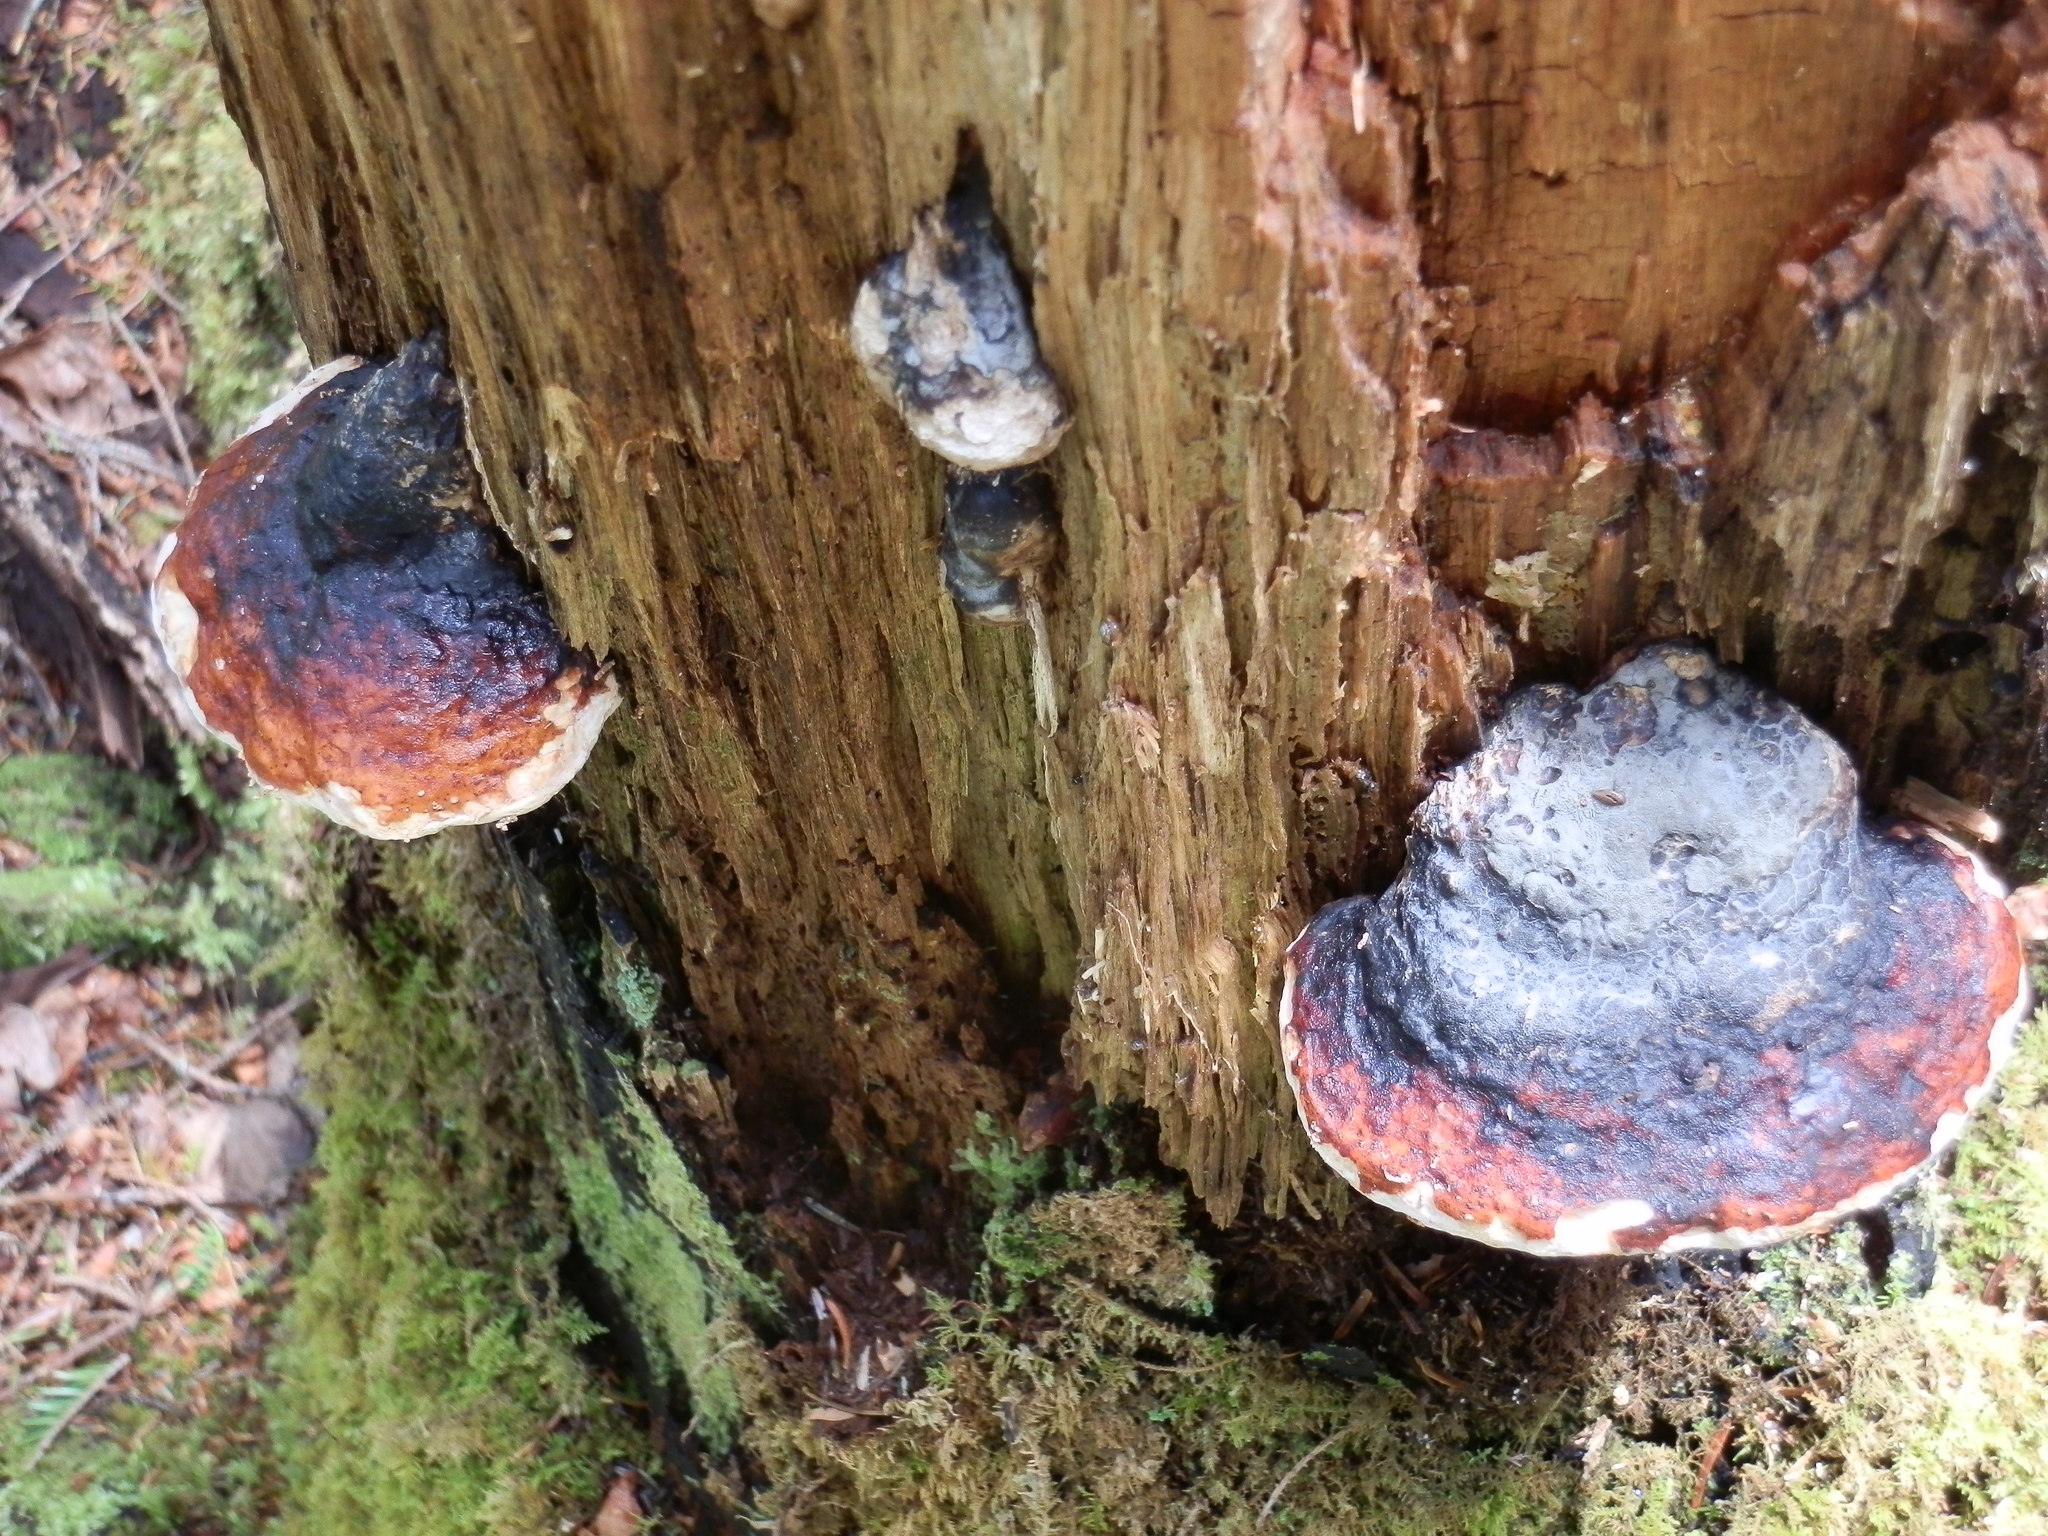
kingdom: Fungi
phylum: Basidiomycota
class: Agaricomycetes
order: Polyporales
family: Fomitopsidaceae
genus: Fomitopsis
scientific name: Fomitopsis mounceae
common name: Northern red belt
